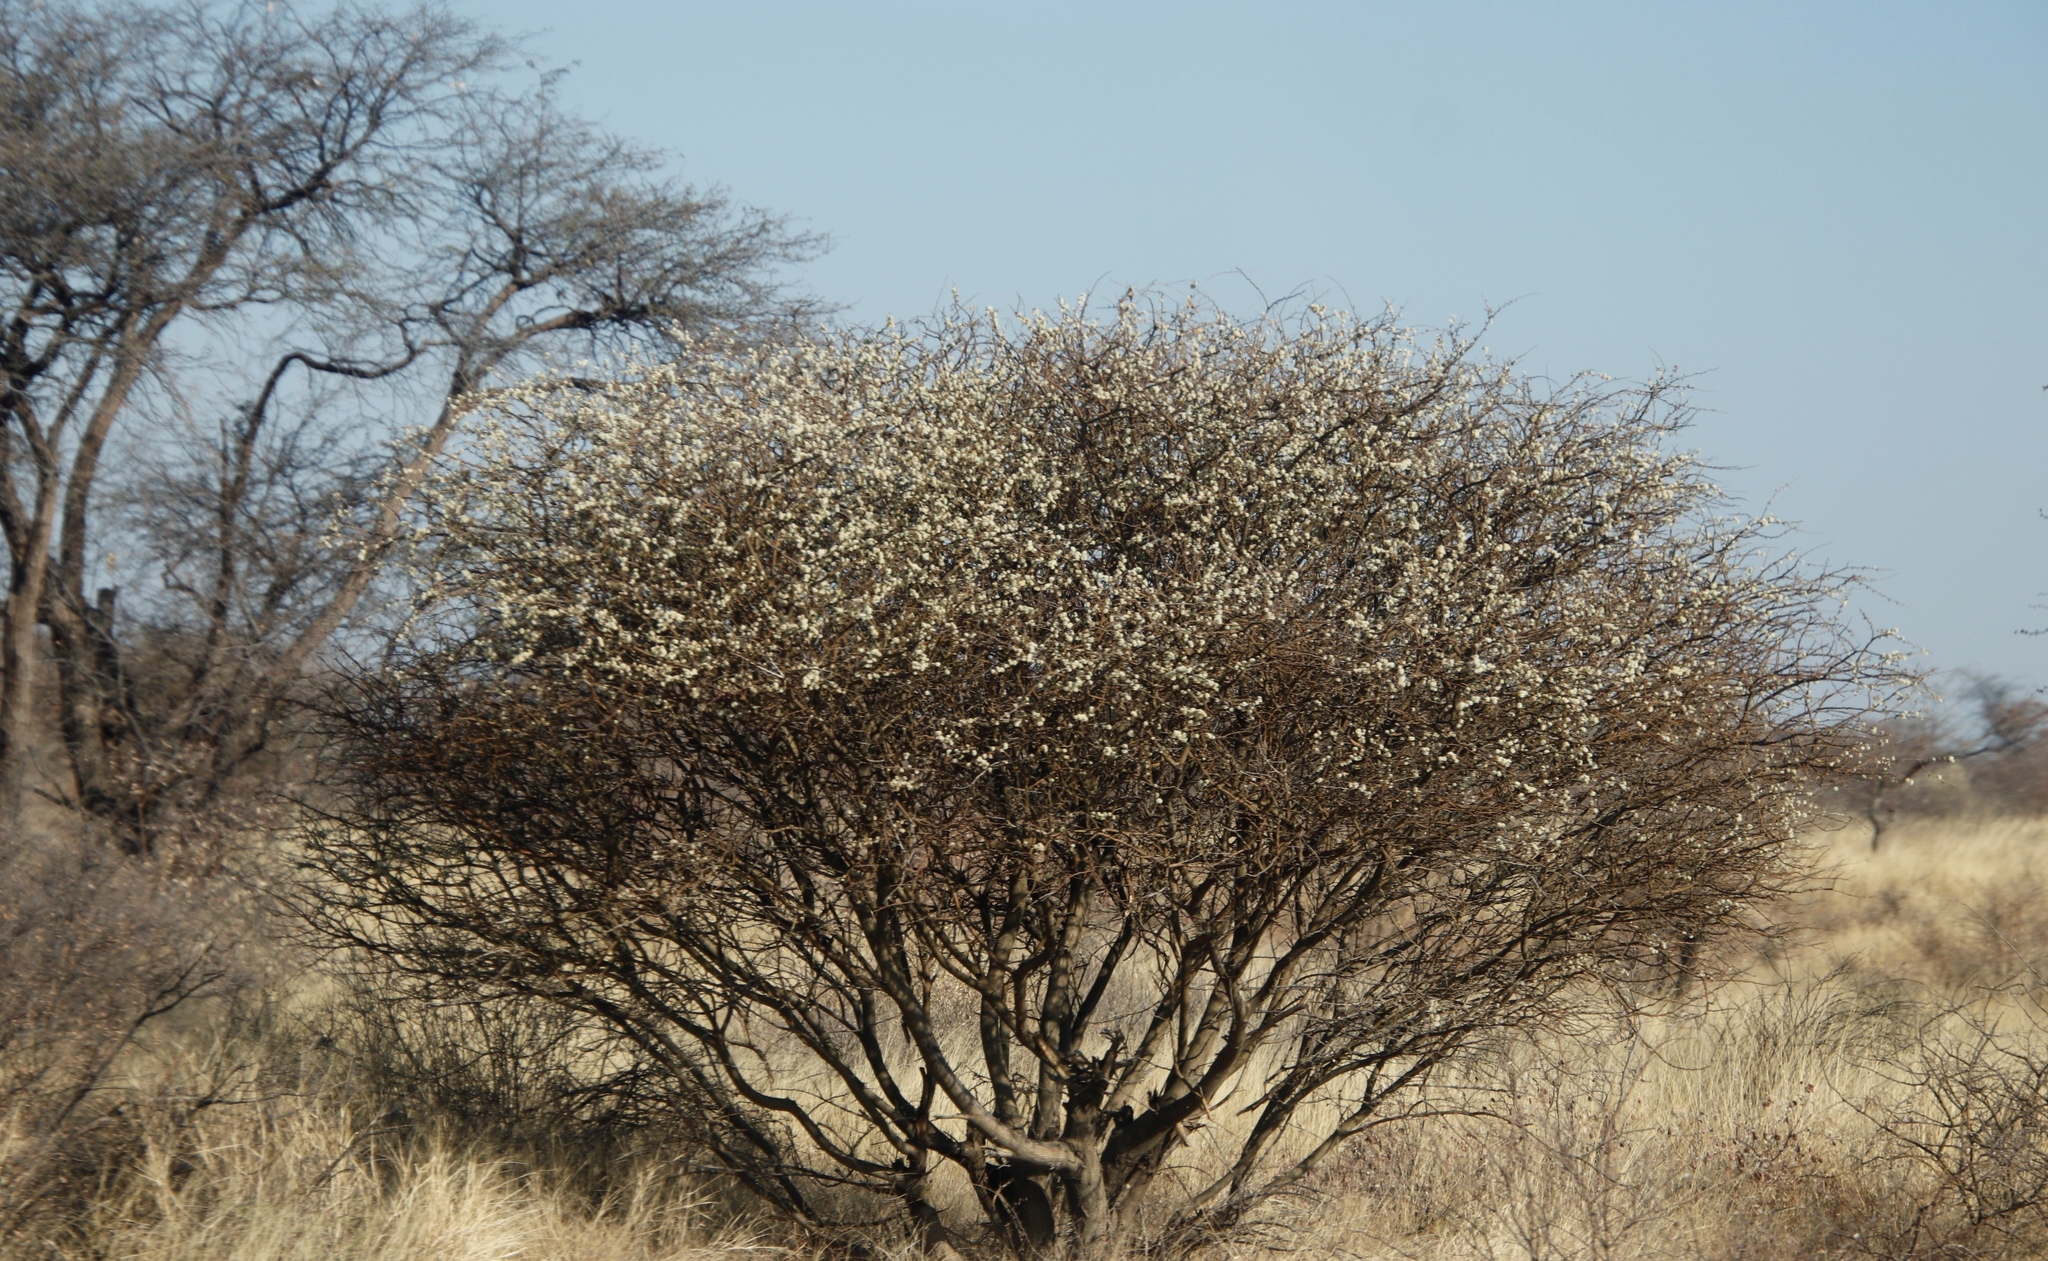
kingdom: Plantae
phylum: Tracheophyta
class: Magnoliopsida
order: Fabales
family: Fabaceae
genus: Senegalia
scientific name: Senegalia mellifera
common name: Hookthorn
